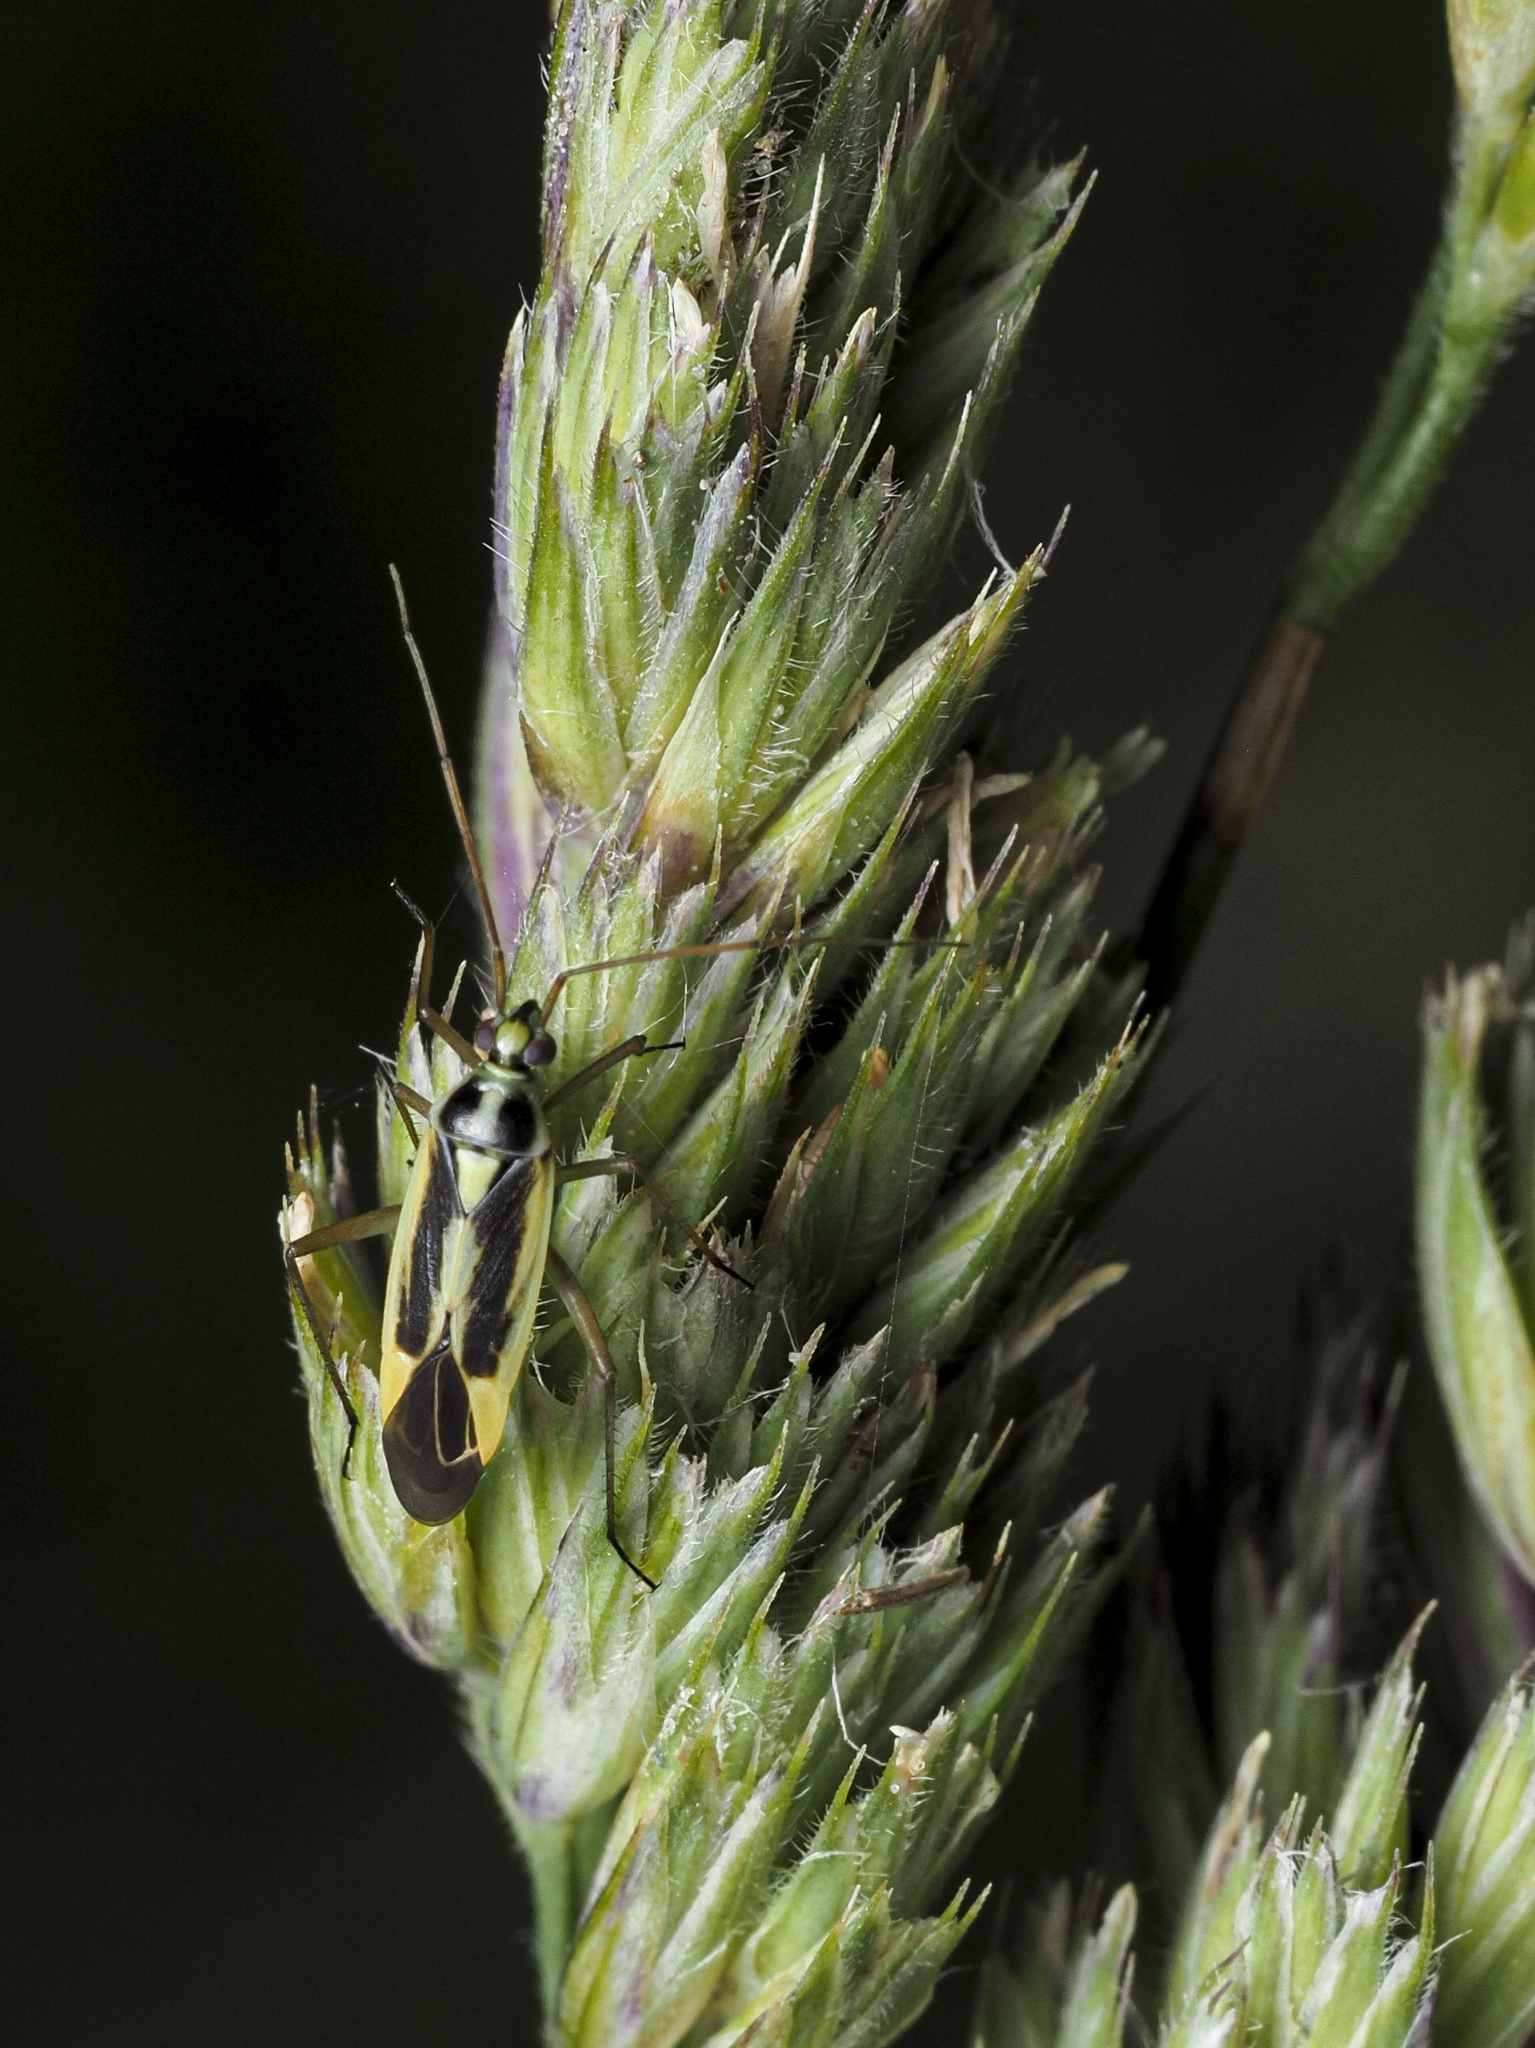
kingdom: Animalia
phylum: Arthropoda
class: Insecta
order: Hemiptera
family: Miridae
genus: Stenotus
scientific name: Stenotus binotatus
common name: Plant bug
